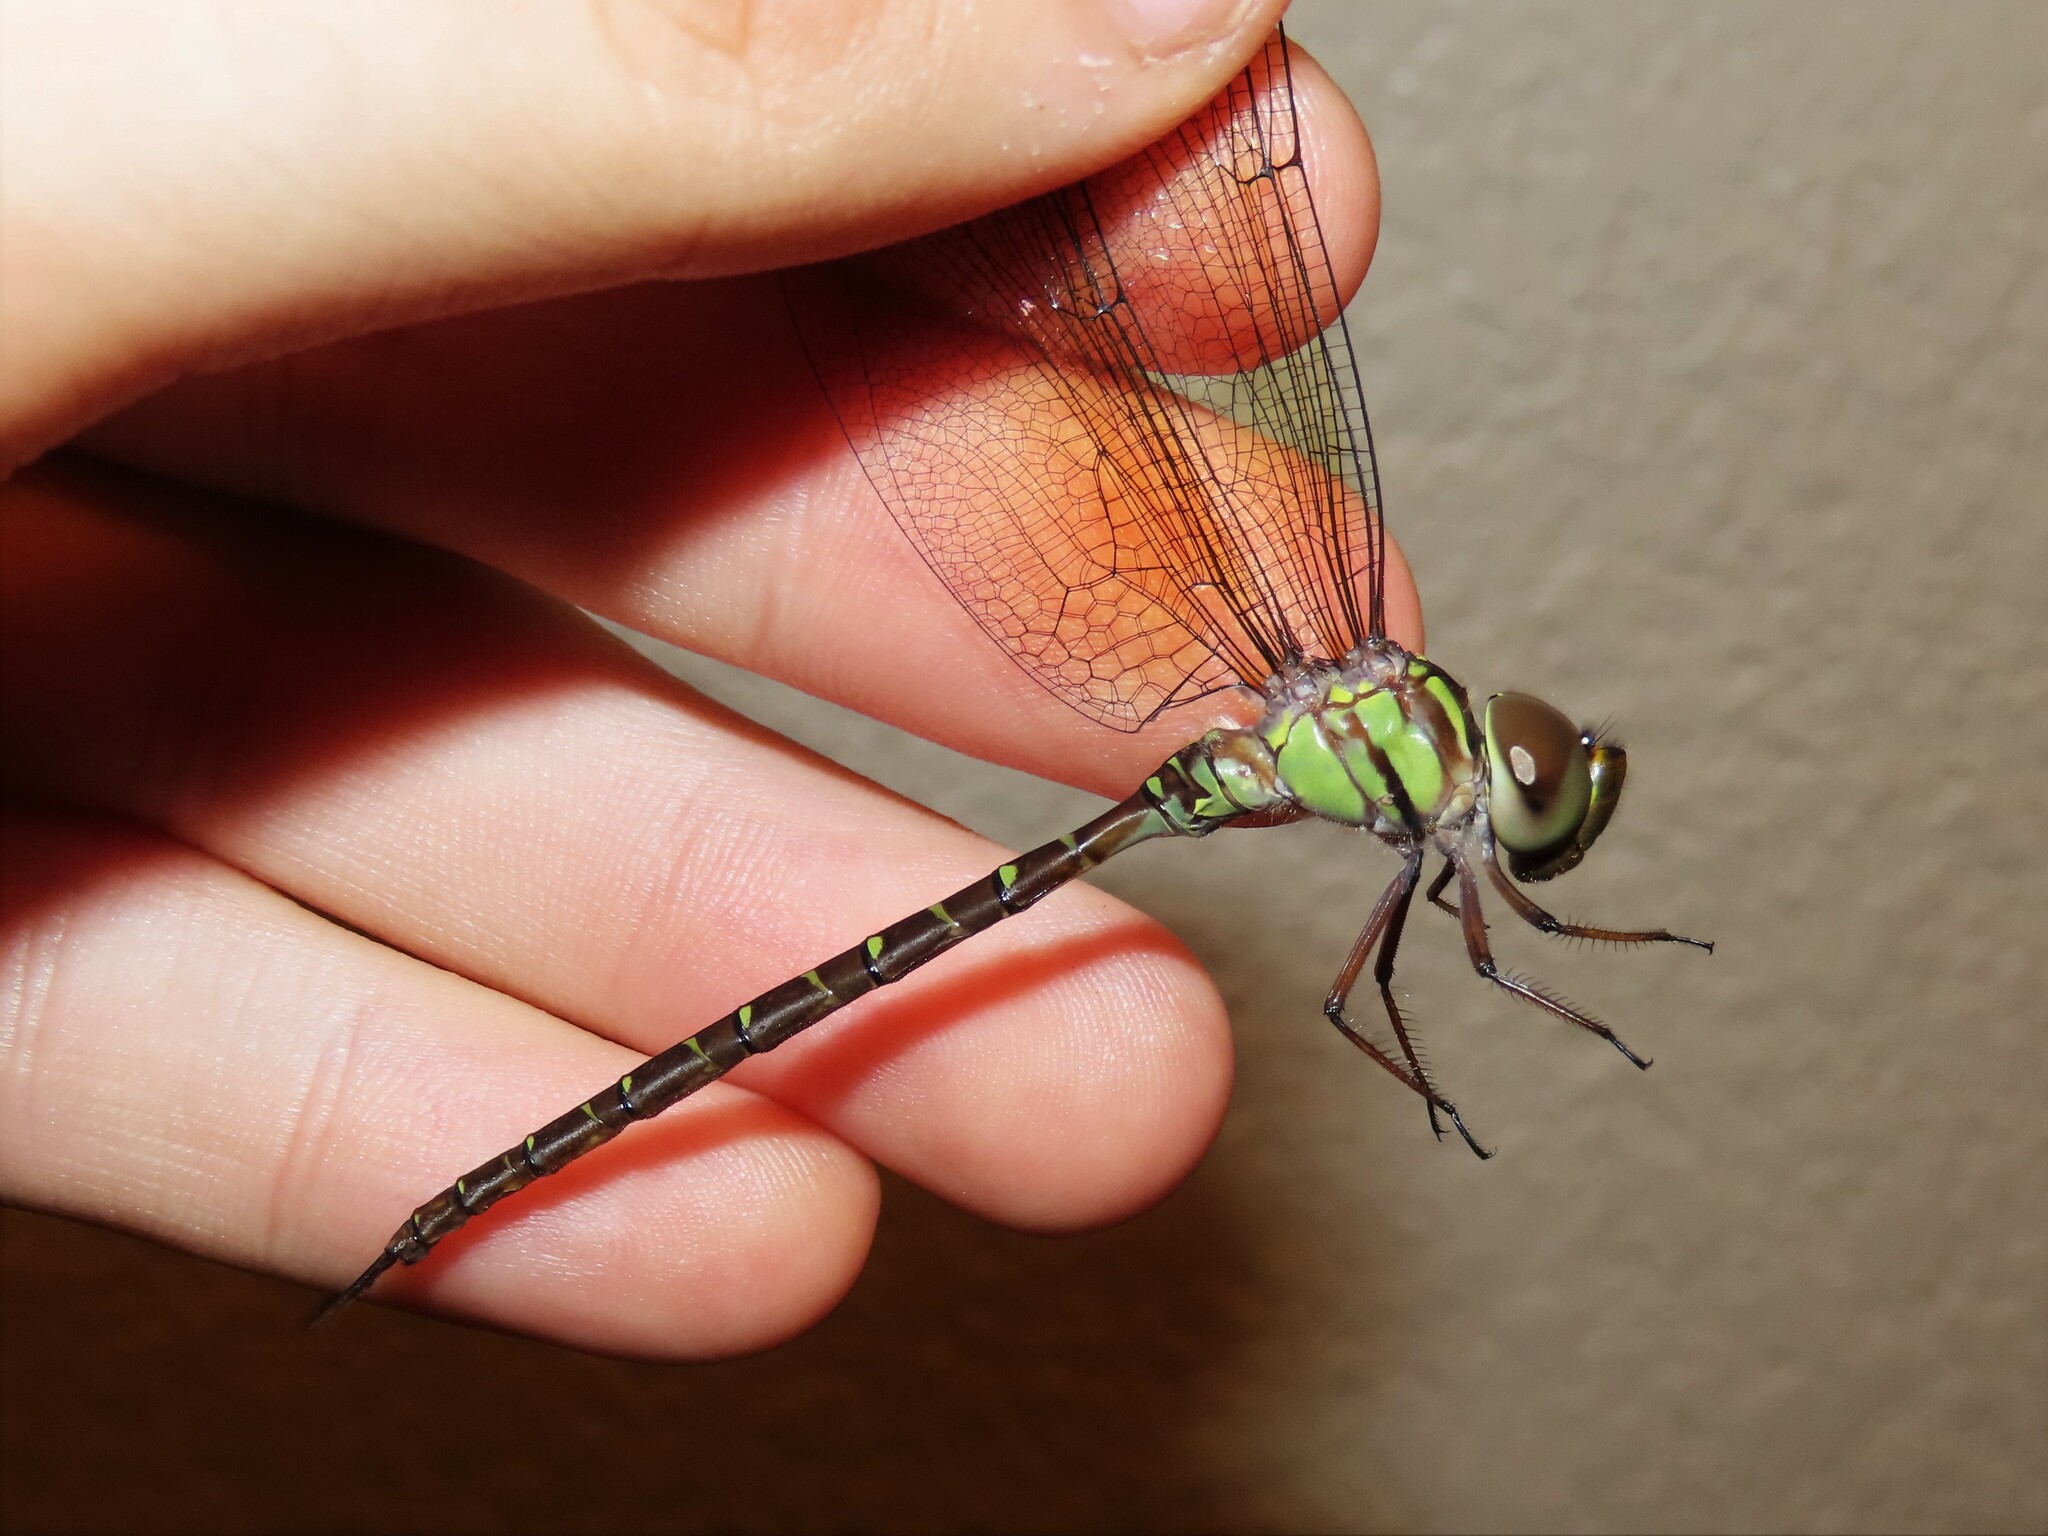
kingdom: Animalia
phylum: Arthropoda
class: Insecta
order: Odonata
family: Aeshnidae
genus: Triacanthagyna
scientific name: Triacanthagyna trifida
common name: Phantom darner
